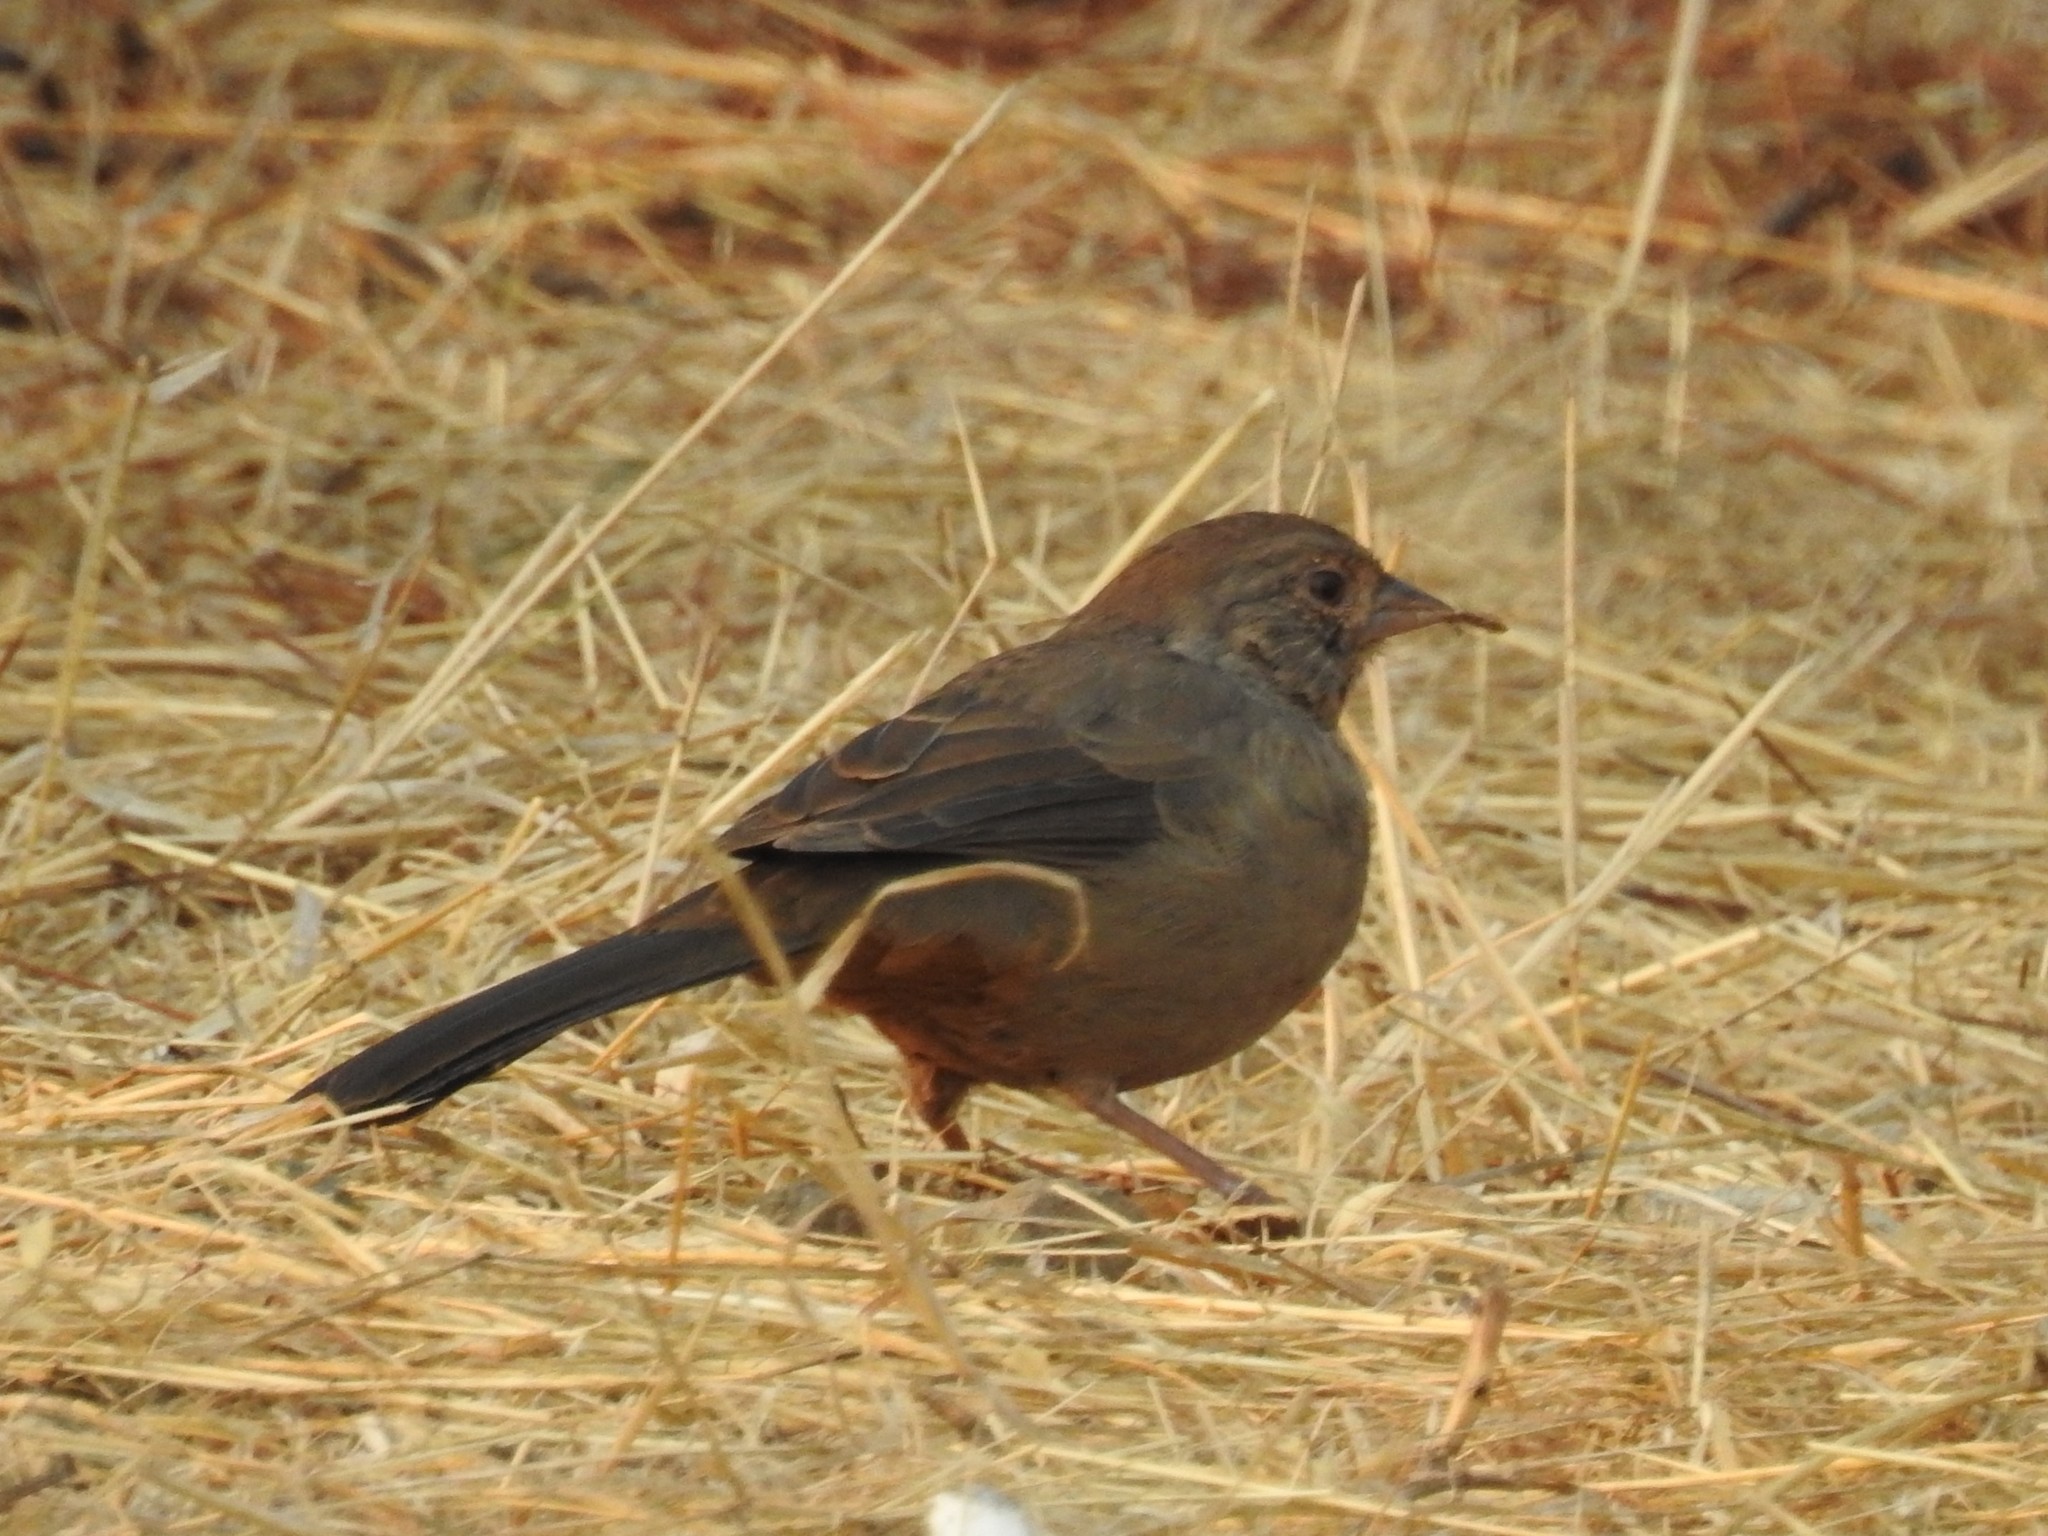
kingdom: Animalia
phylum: Chordata
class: Aves
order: Passeriformes
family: Passerellidae
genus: Melozone
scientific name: Melozone crissalis
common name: California towhee
